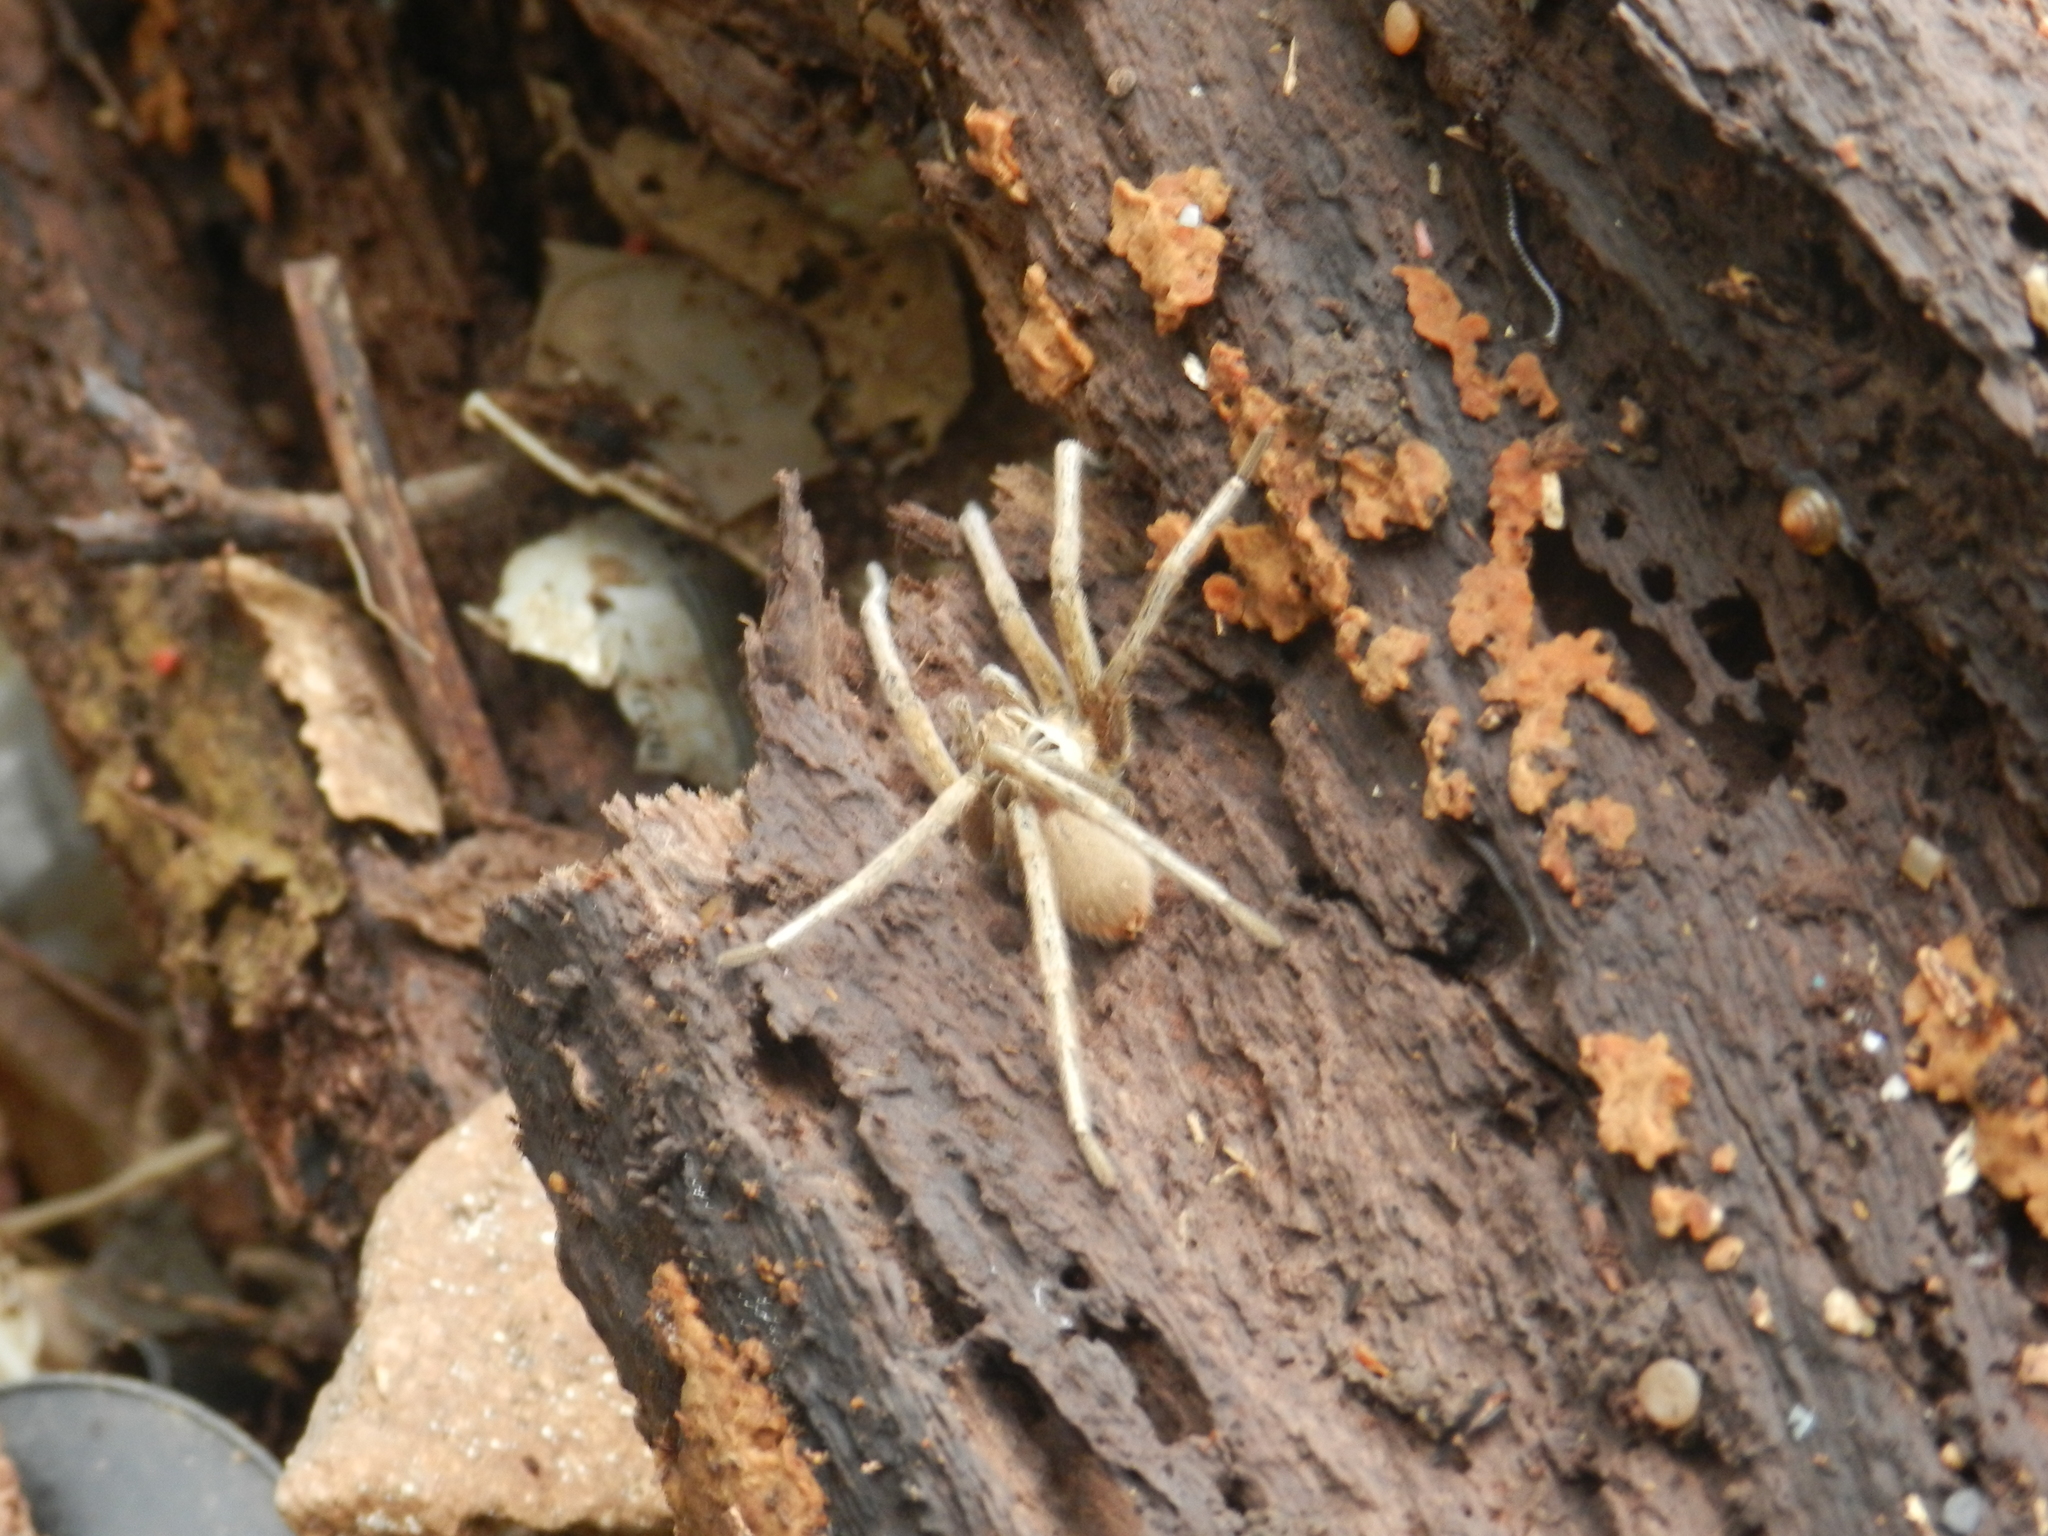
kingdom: Animalia
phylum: Arthropoda
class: Arachnida
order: Araneae
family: Ctenidae
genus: Ancylometes
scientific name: Ancylometes concolor
